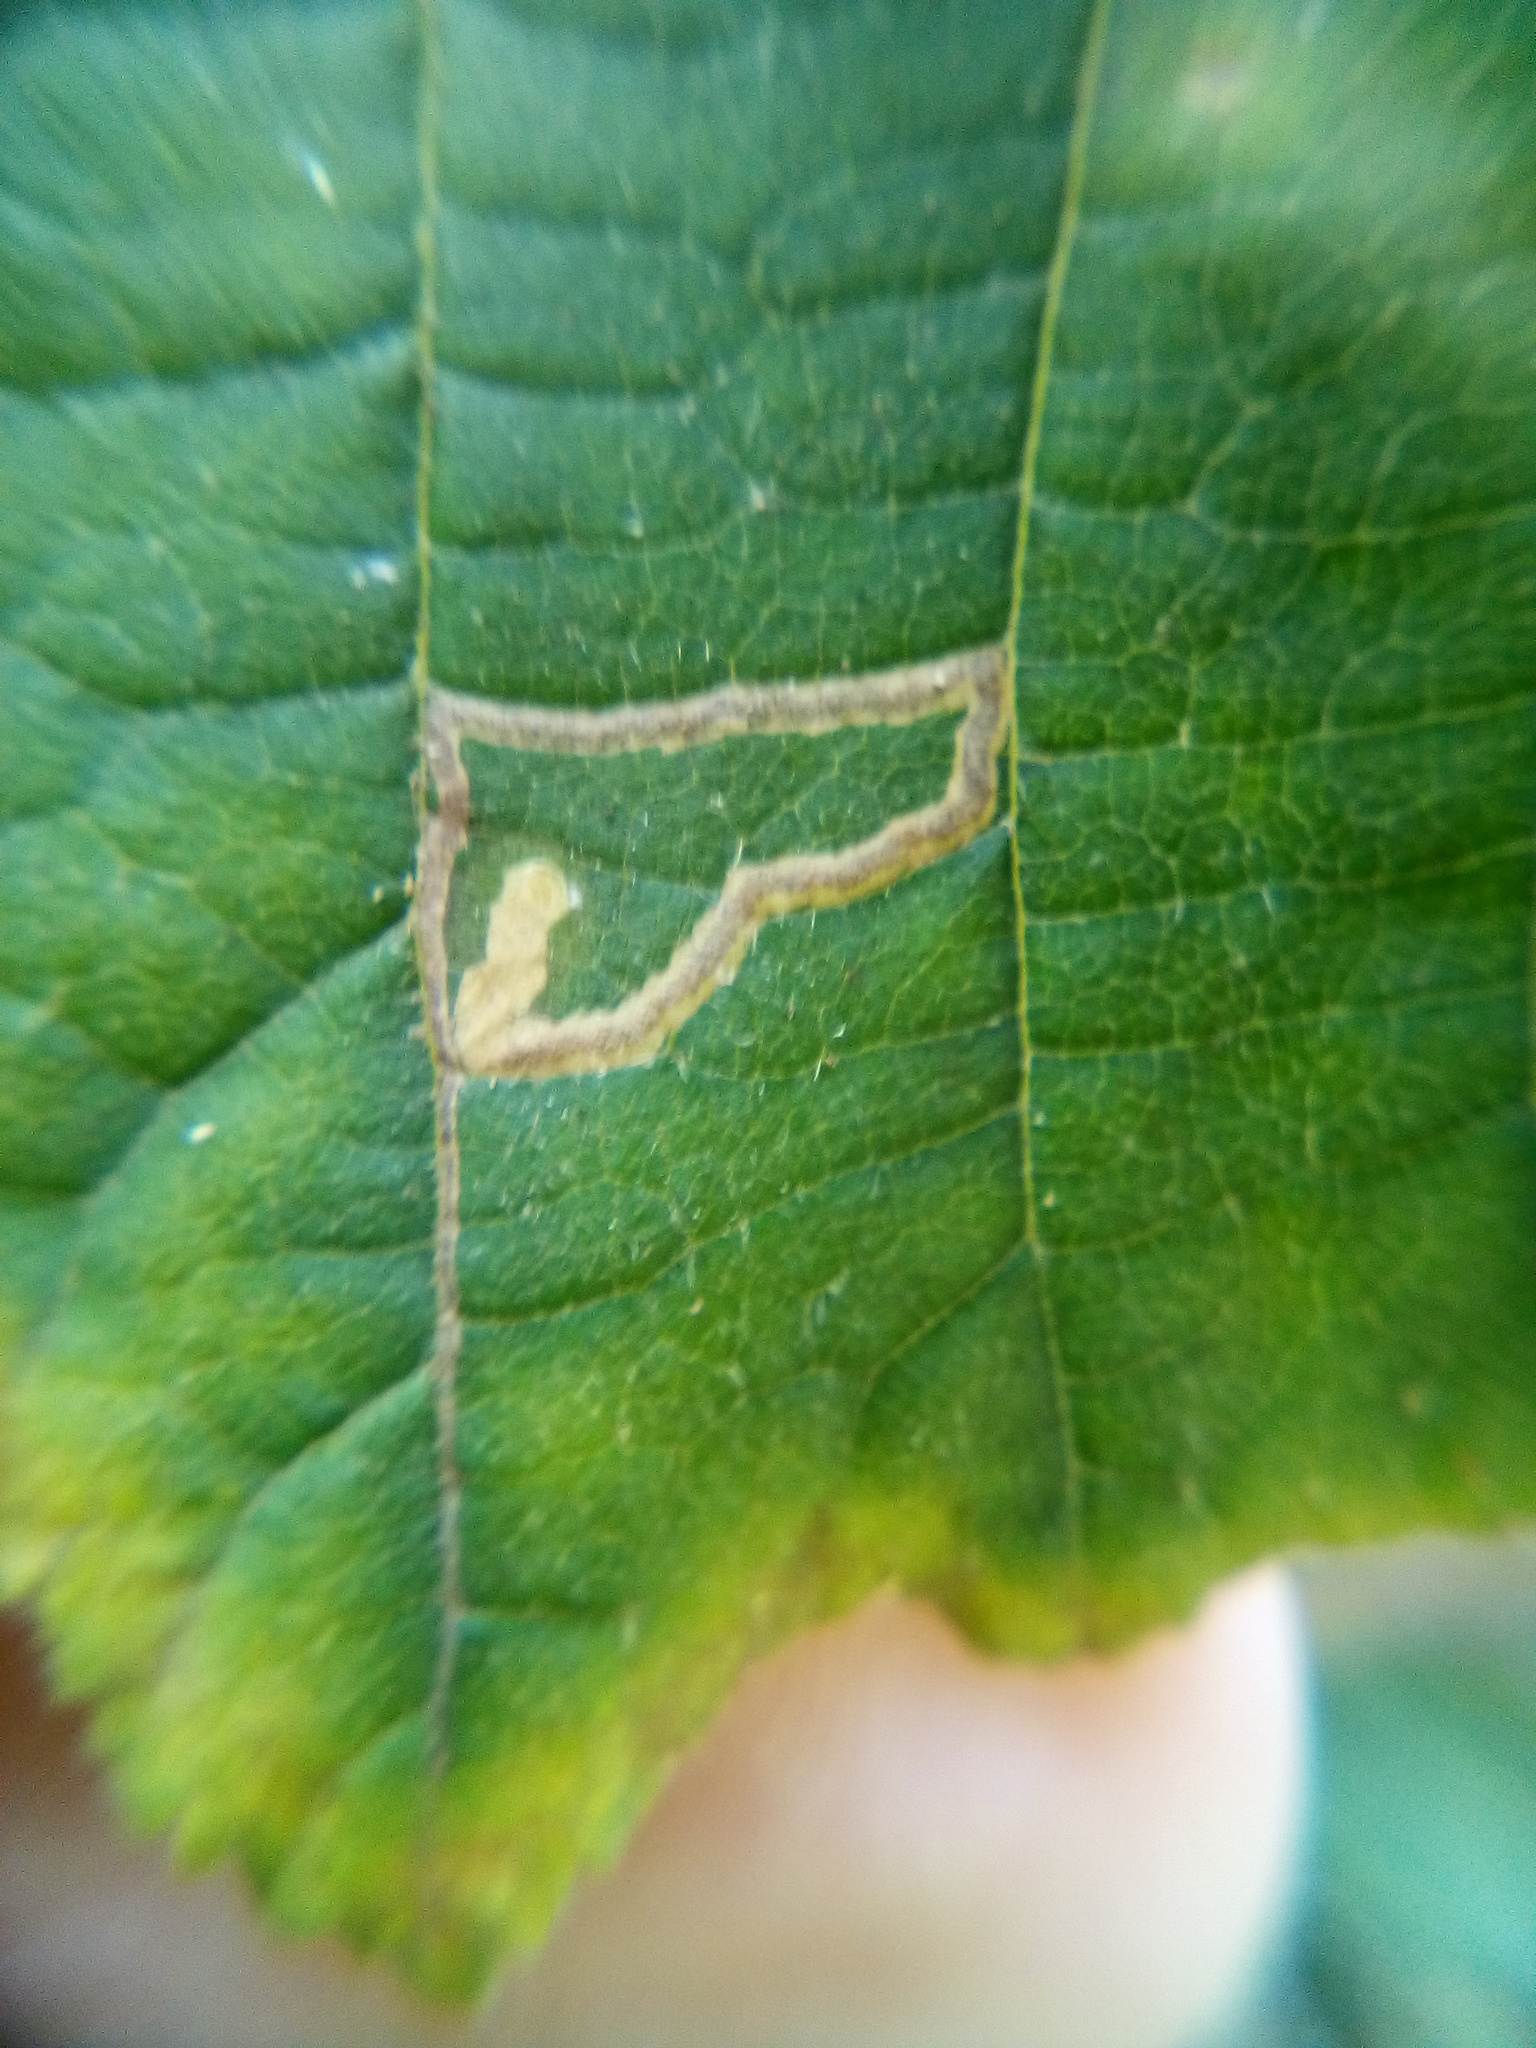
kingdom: Animalia
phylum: Arthropoda
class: Insecta
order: Lepidoptera
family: Nepticulidae
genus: Stigmella
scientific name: Stigmella microtheriella
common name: Nut-tree pigmy
